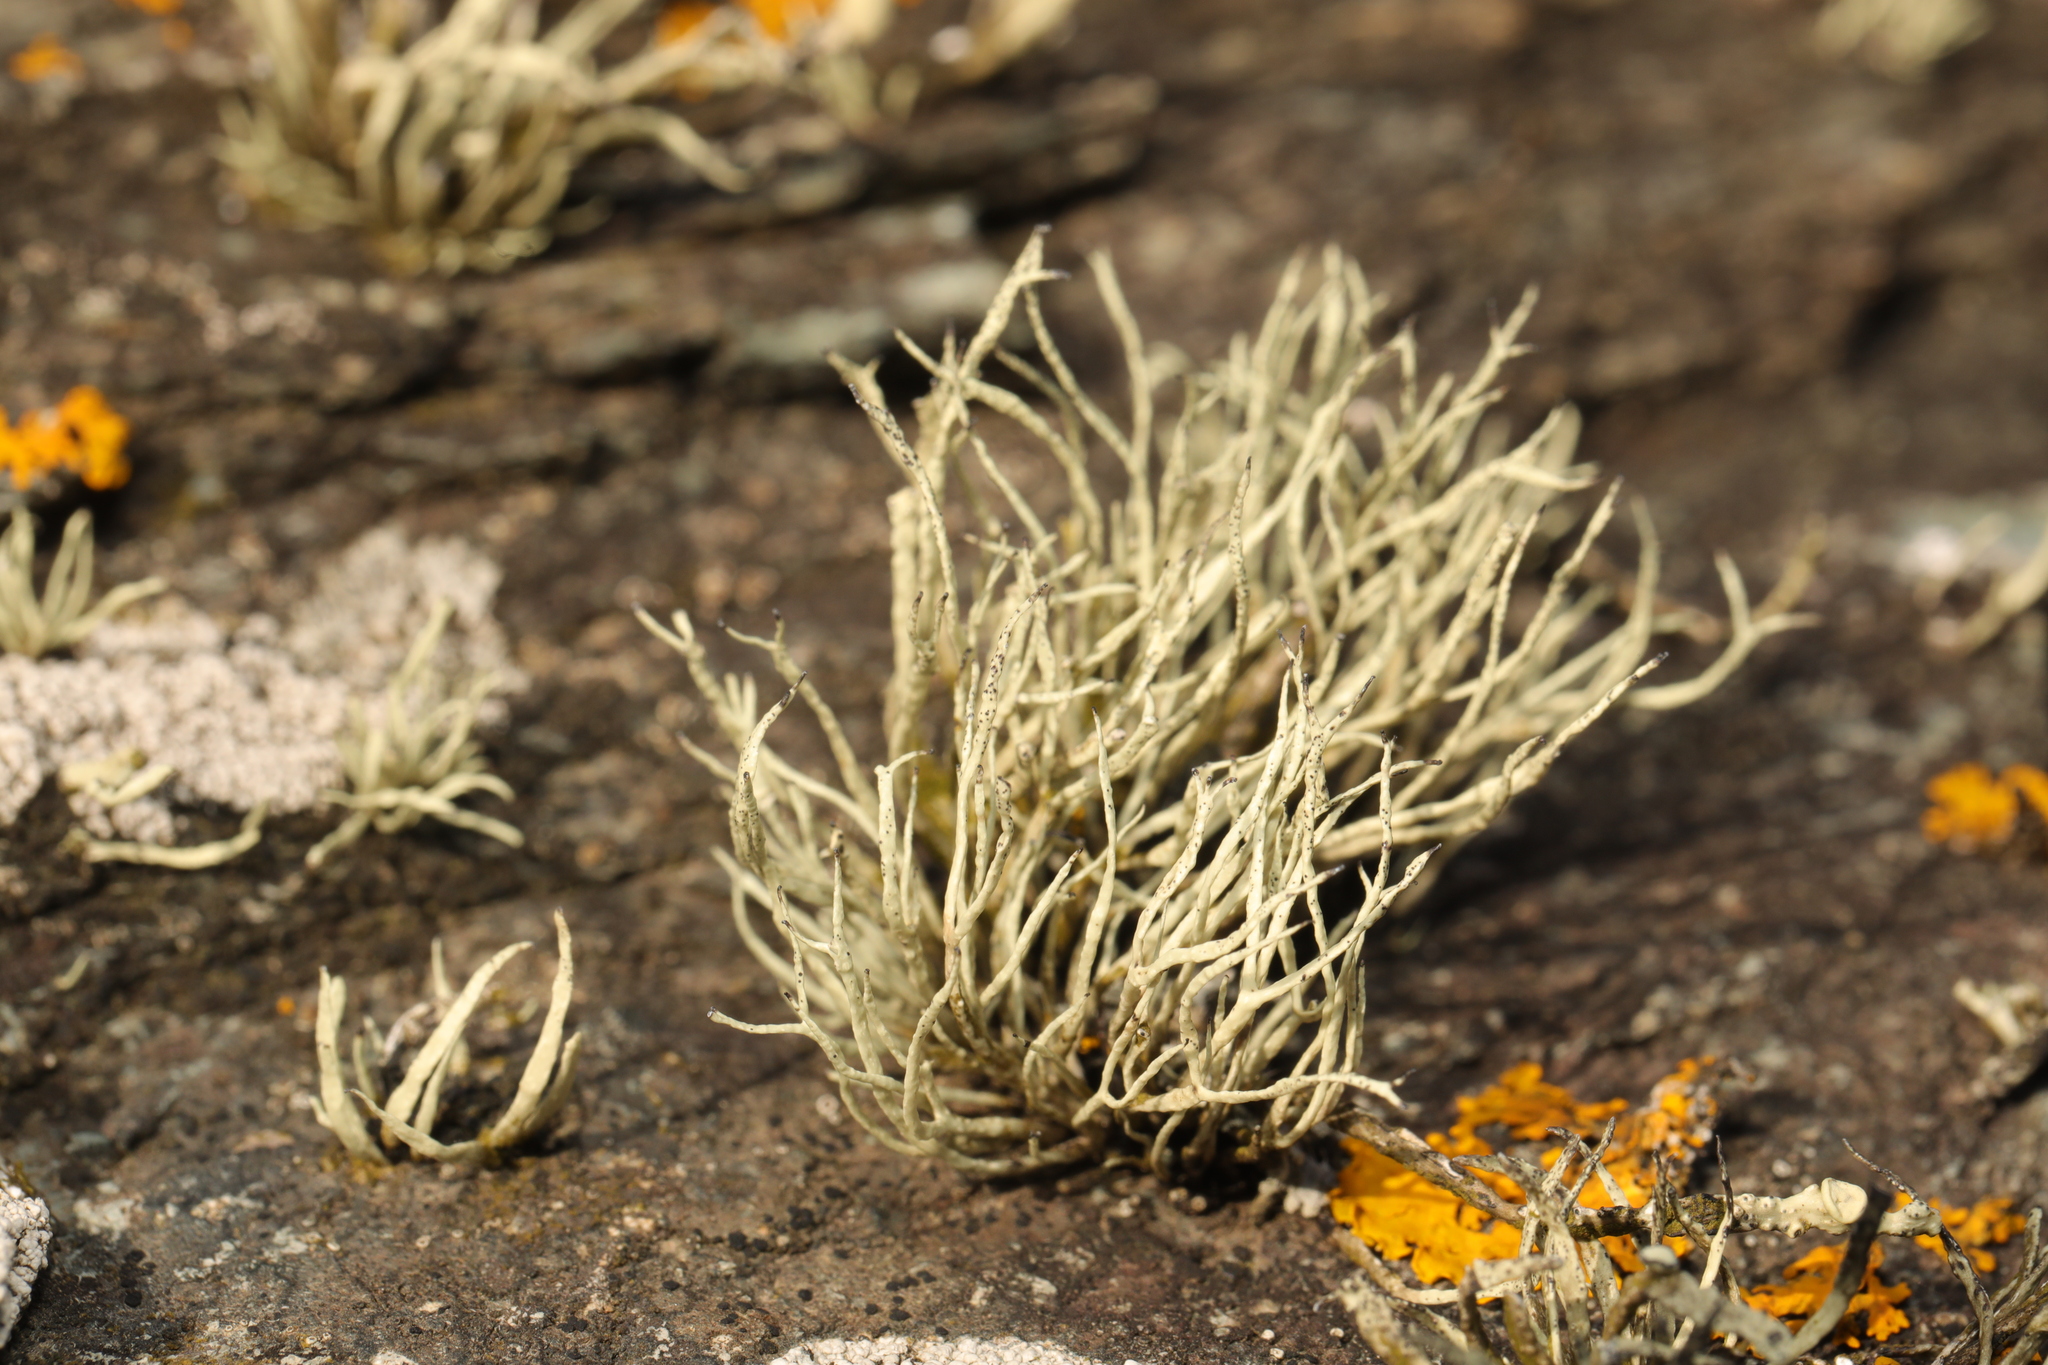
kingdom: Fungi
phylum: Ascomycota
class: Lecanoromycetes
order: Lecanorales
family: Ramalinaceae
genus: Ramalina
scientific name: Ramalina cuspidata
